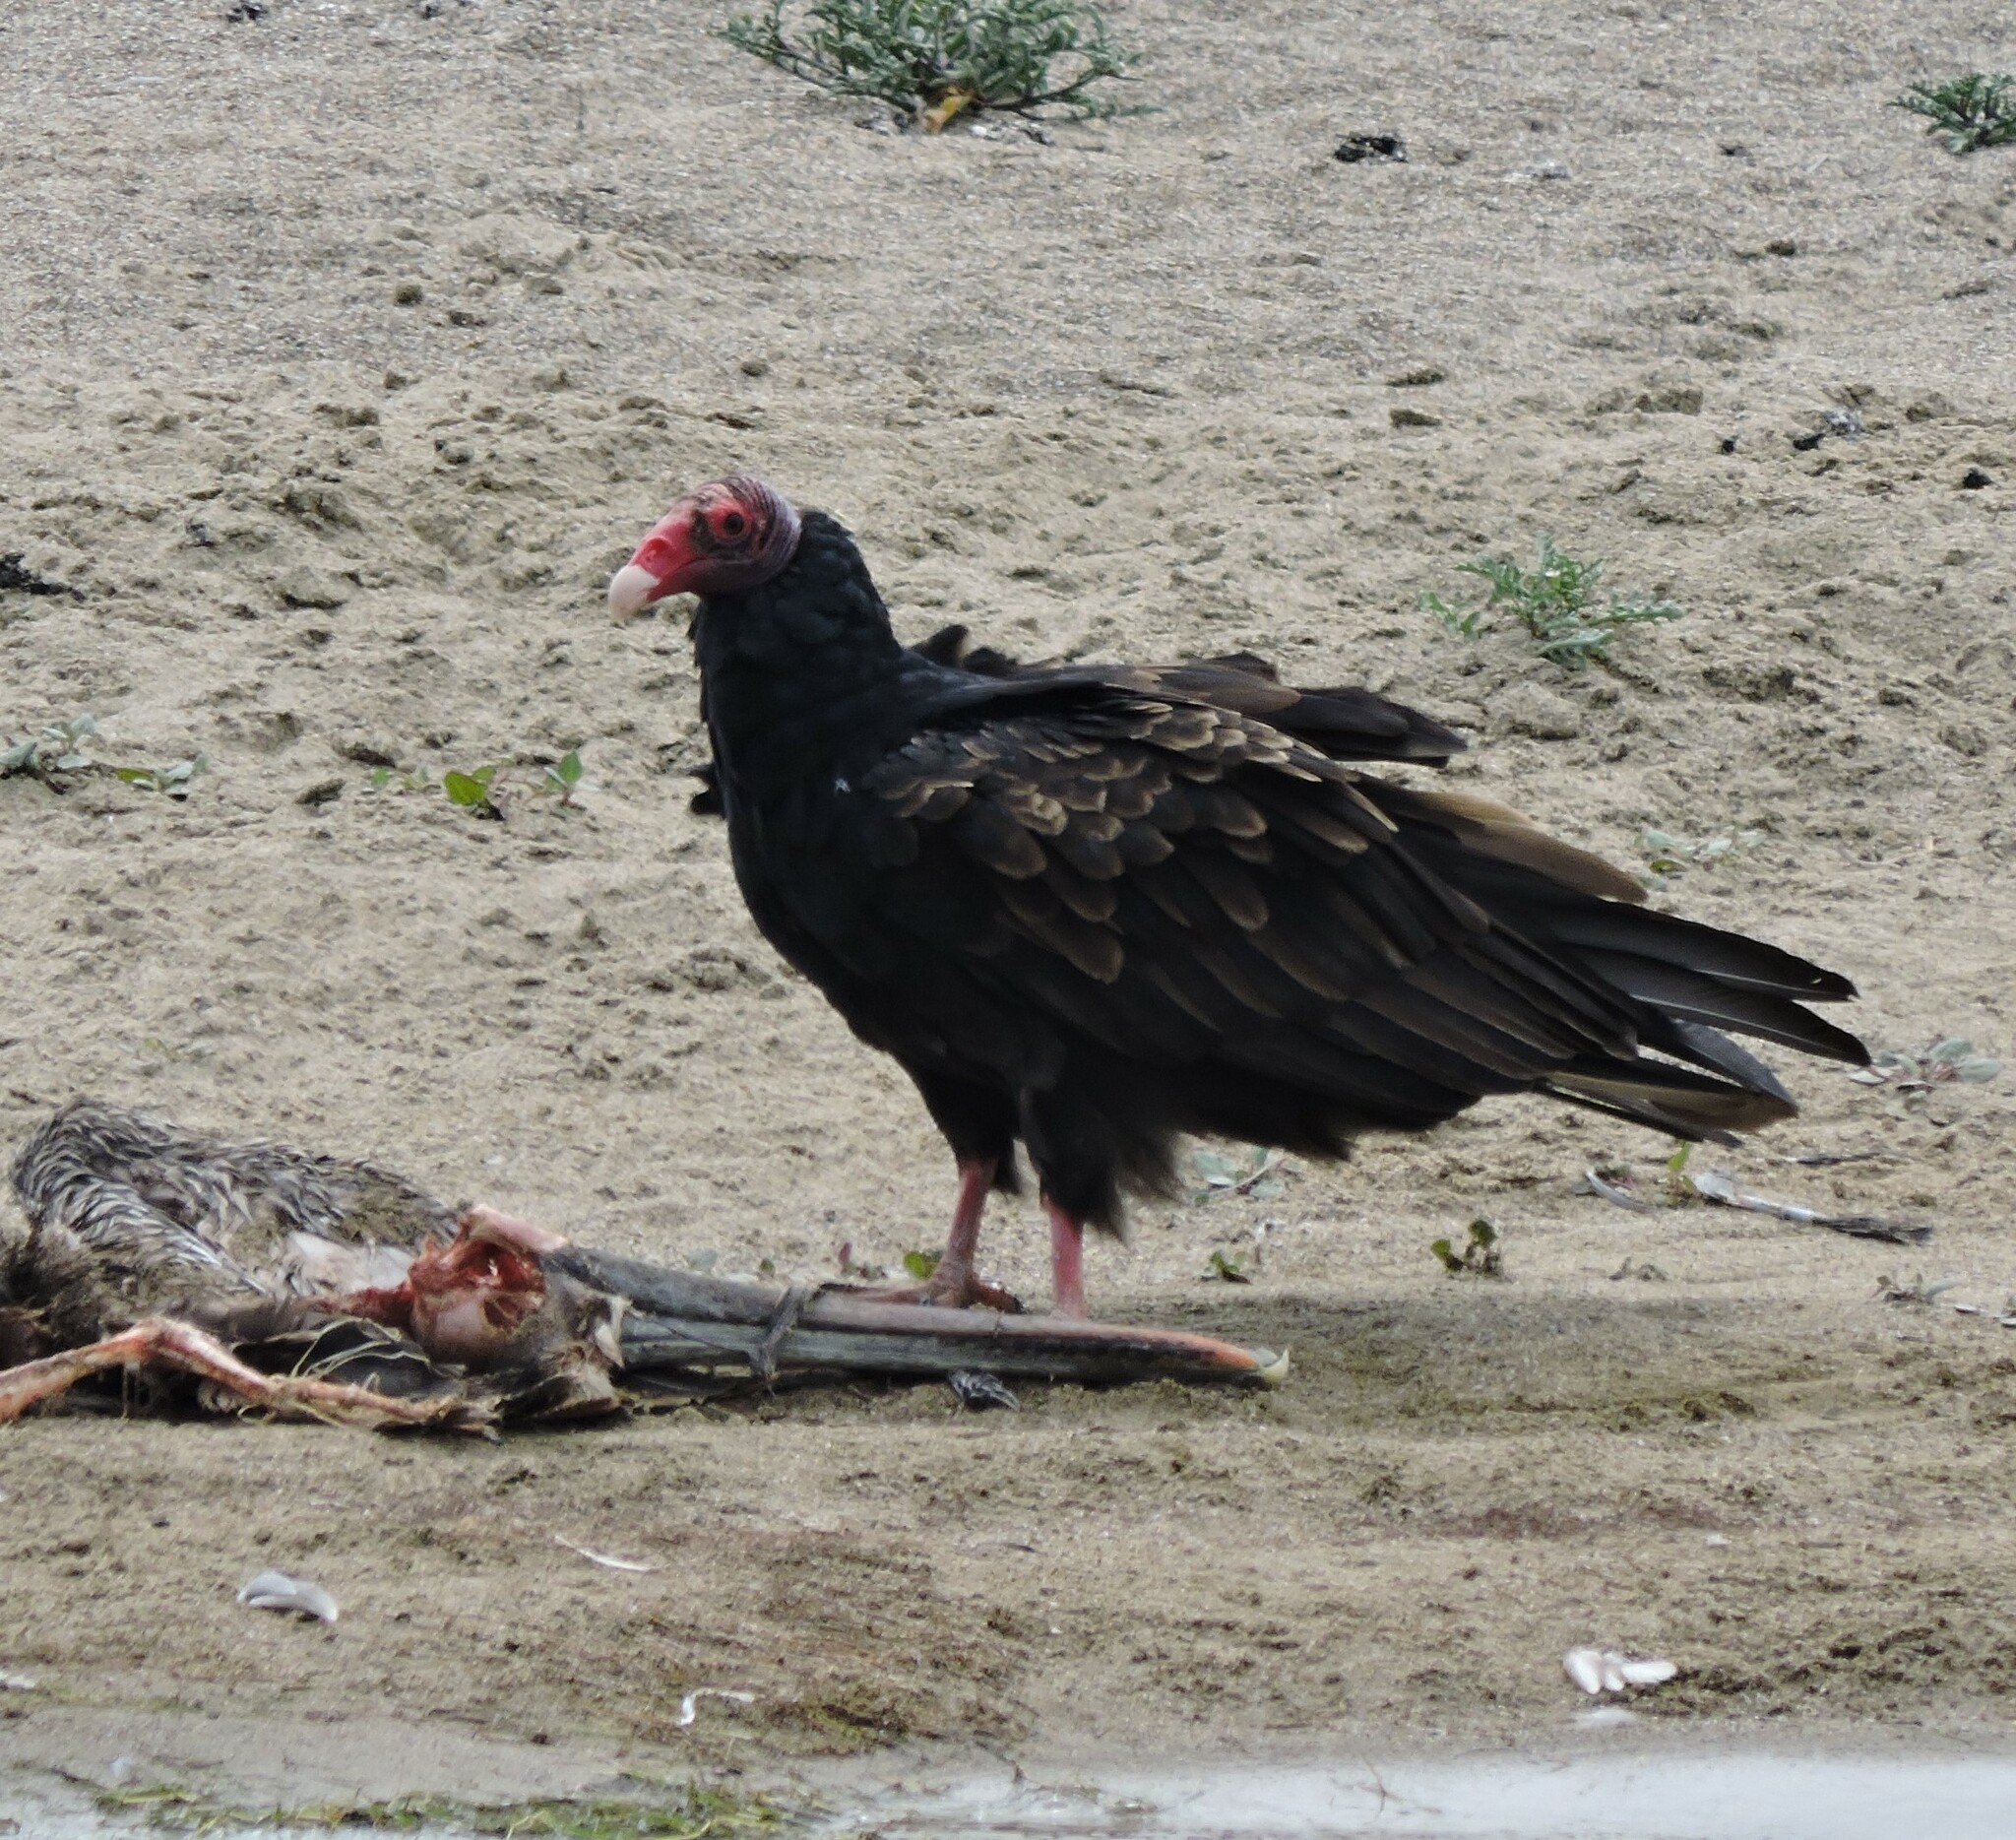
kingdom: Animalia
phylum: Chordata
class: Aves
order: Accipitriformes
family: Cathartidae
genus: Cathartes
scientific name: Cathartes aura
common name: Turkey vulture
